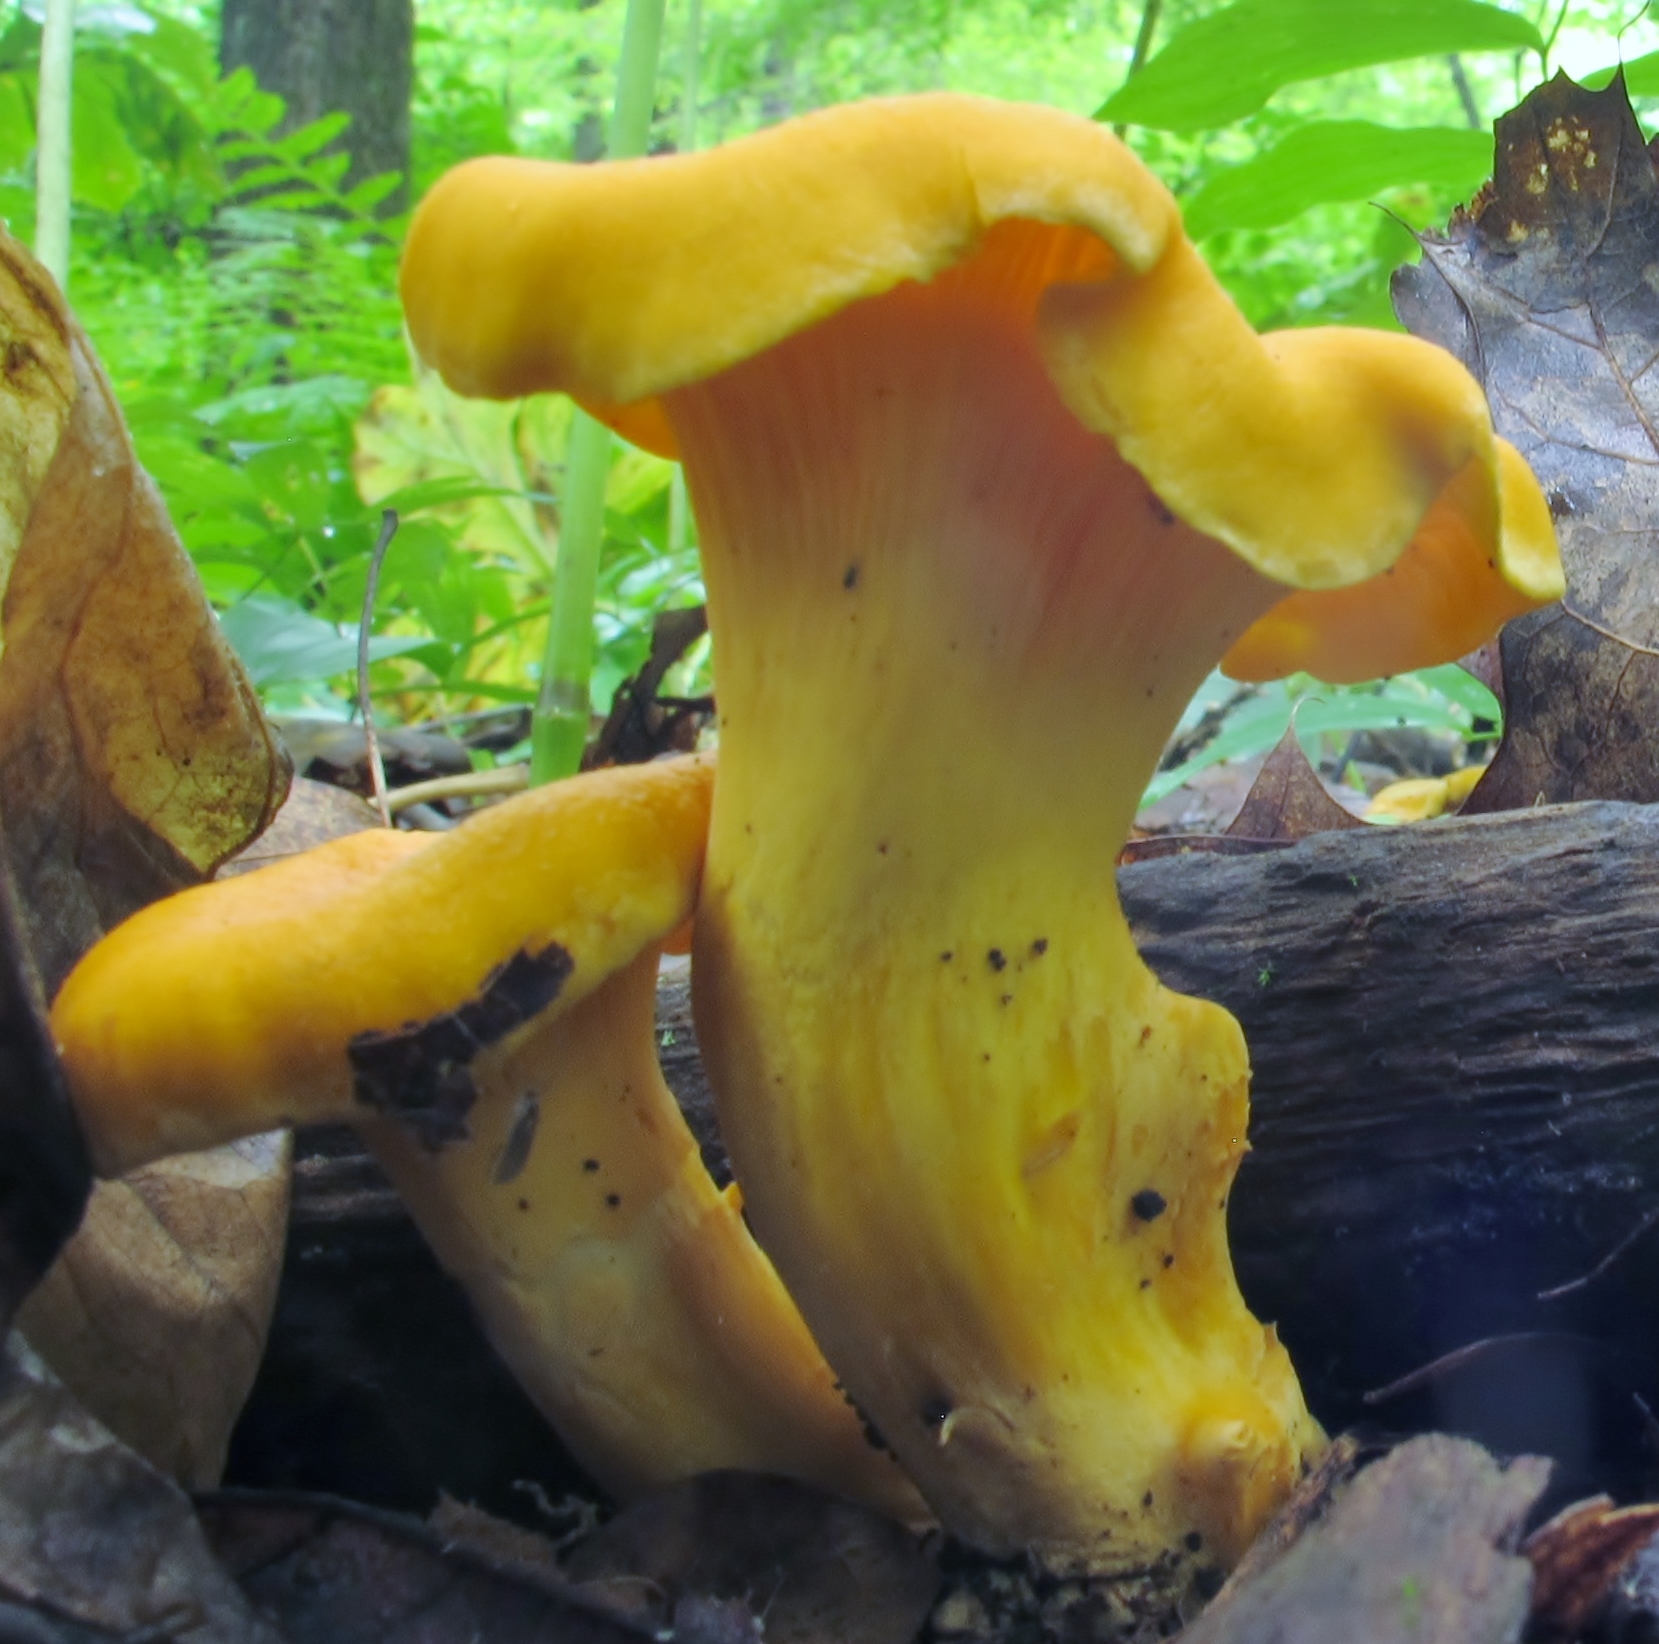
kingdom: Fungi
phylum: Basidiomycota
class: Agaricomycetes
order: Cantharellales
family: Hydnaceae
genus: Cantharellus
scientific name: Cantharellus lateritius
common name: Smooth chanterelle
